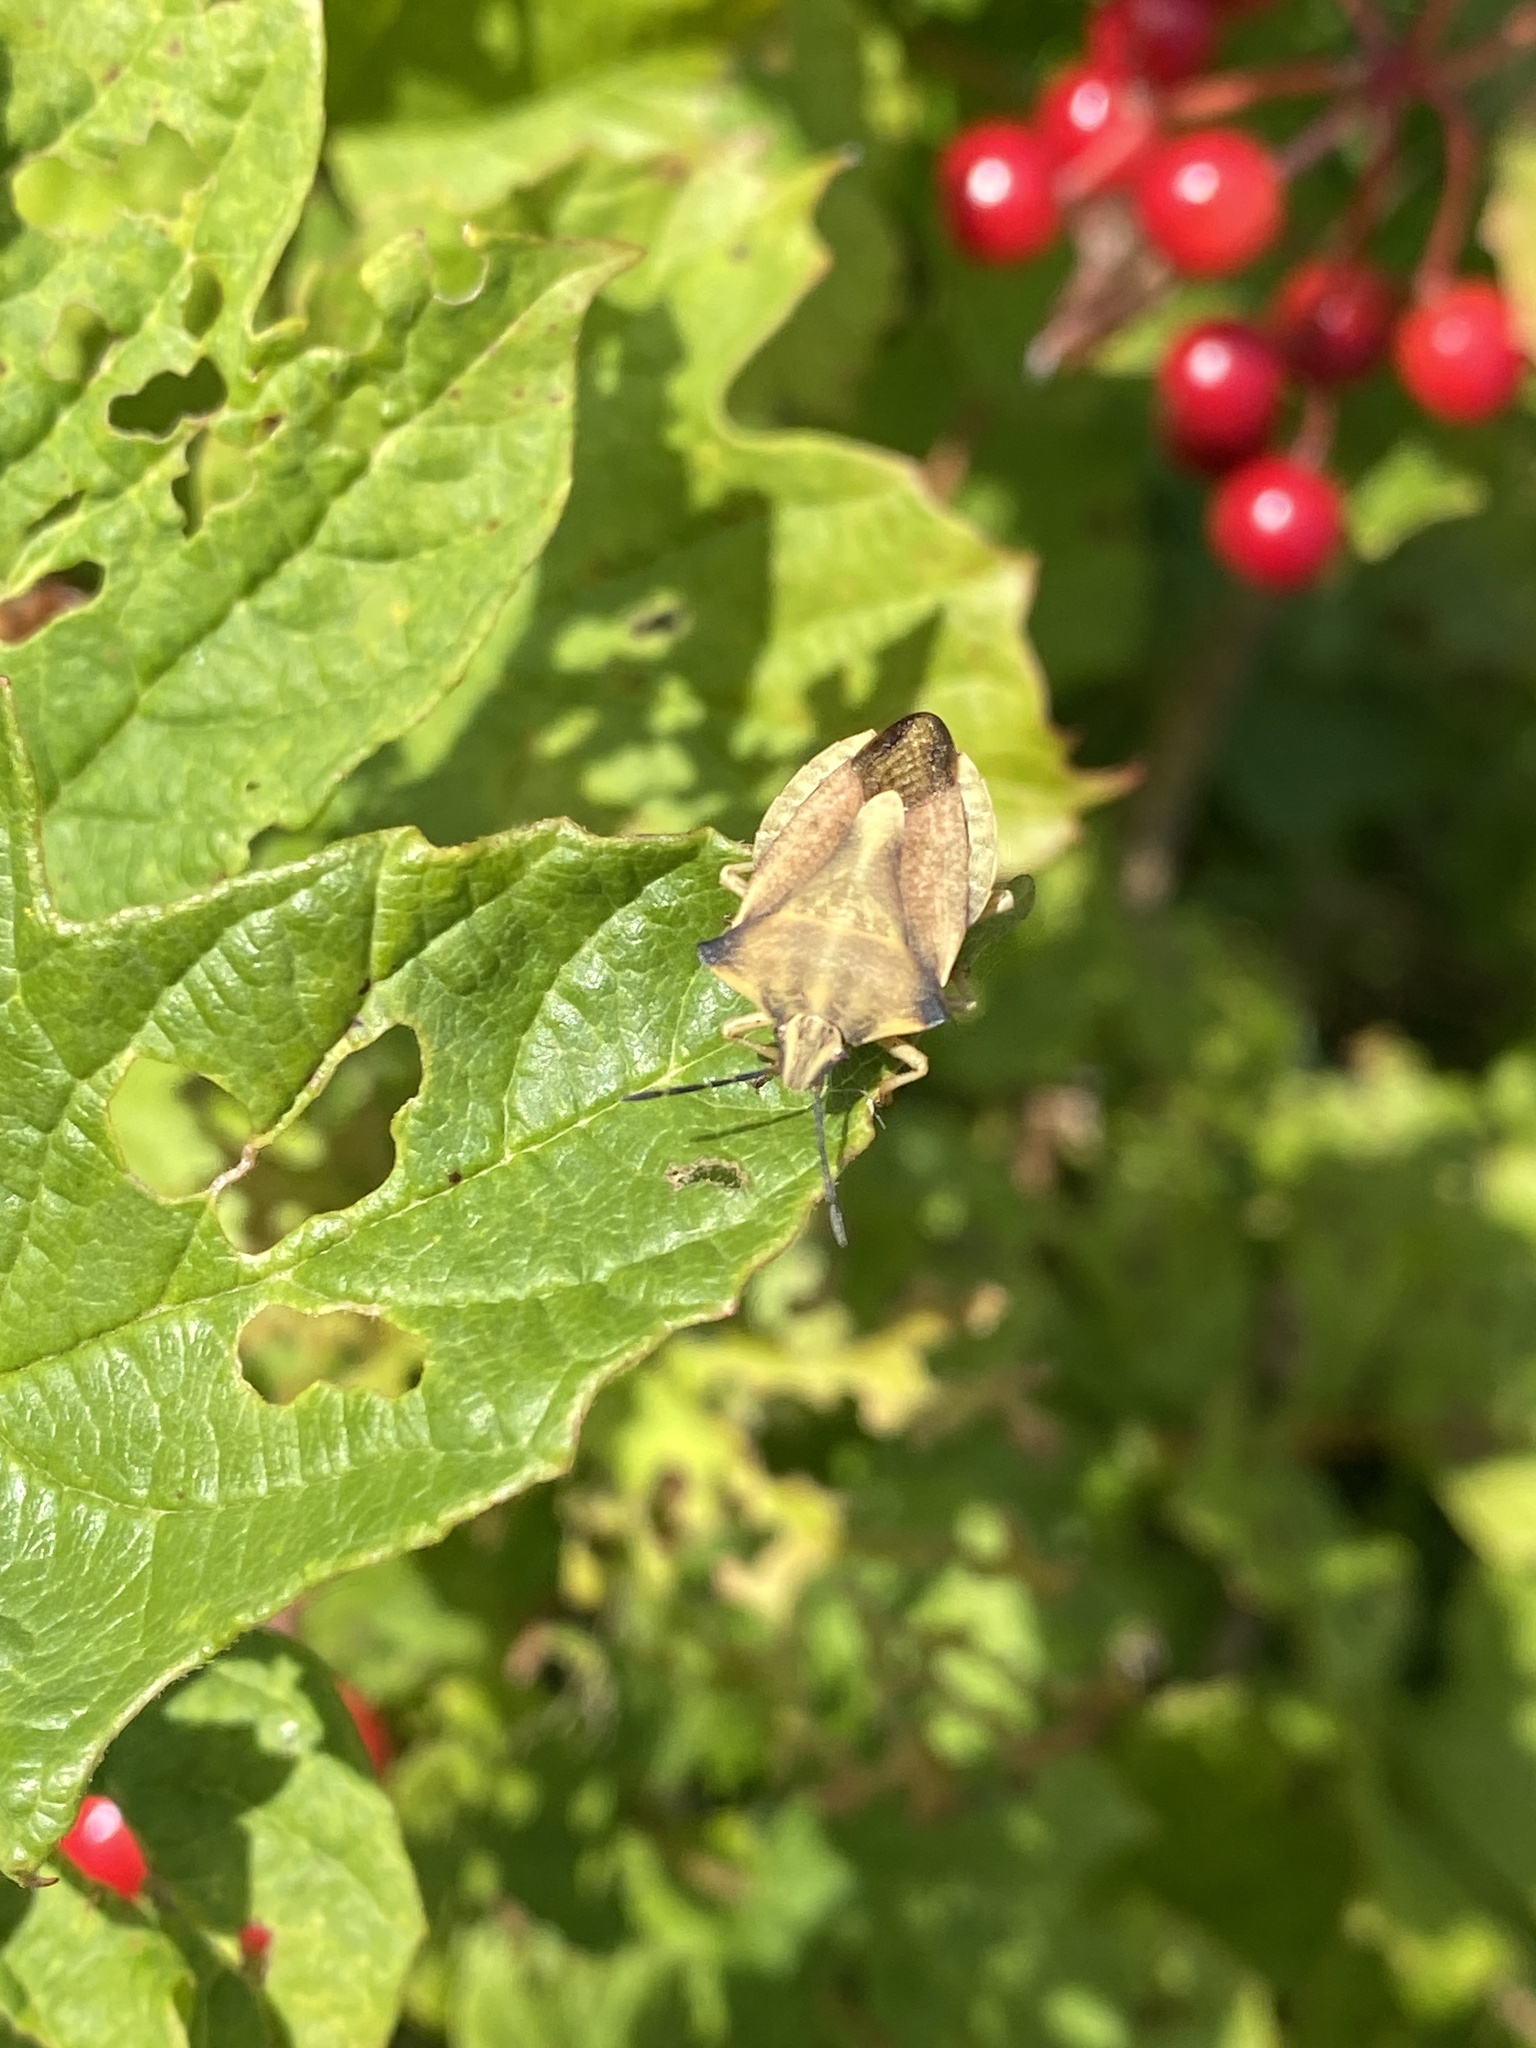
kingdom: Animalia
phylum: Arthropoda
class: Insecta
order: Hemiptera
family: Pentatomidae
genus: Carpocoris
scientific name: Carpocoris fuscispinus
